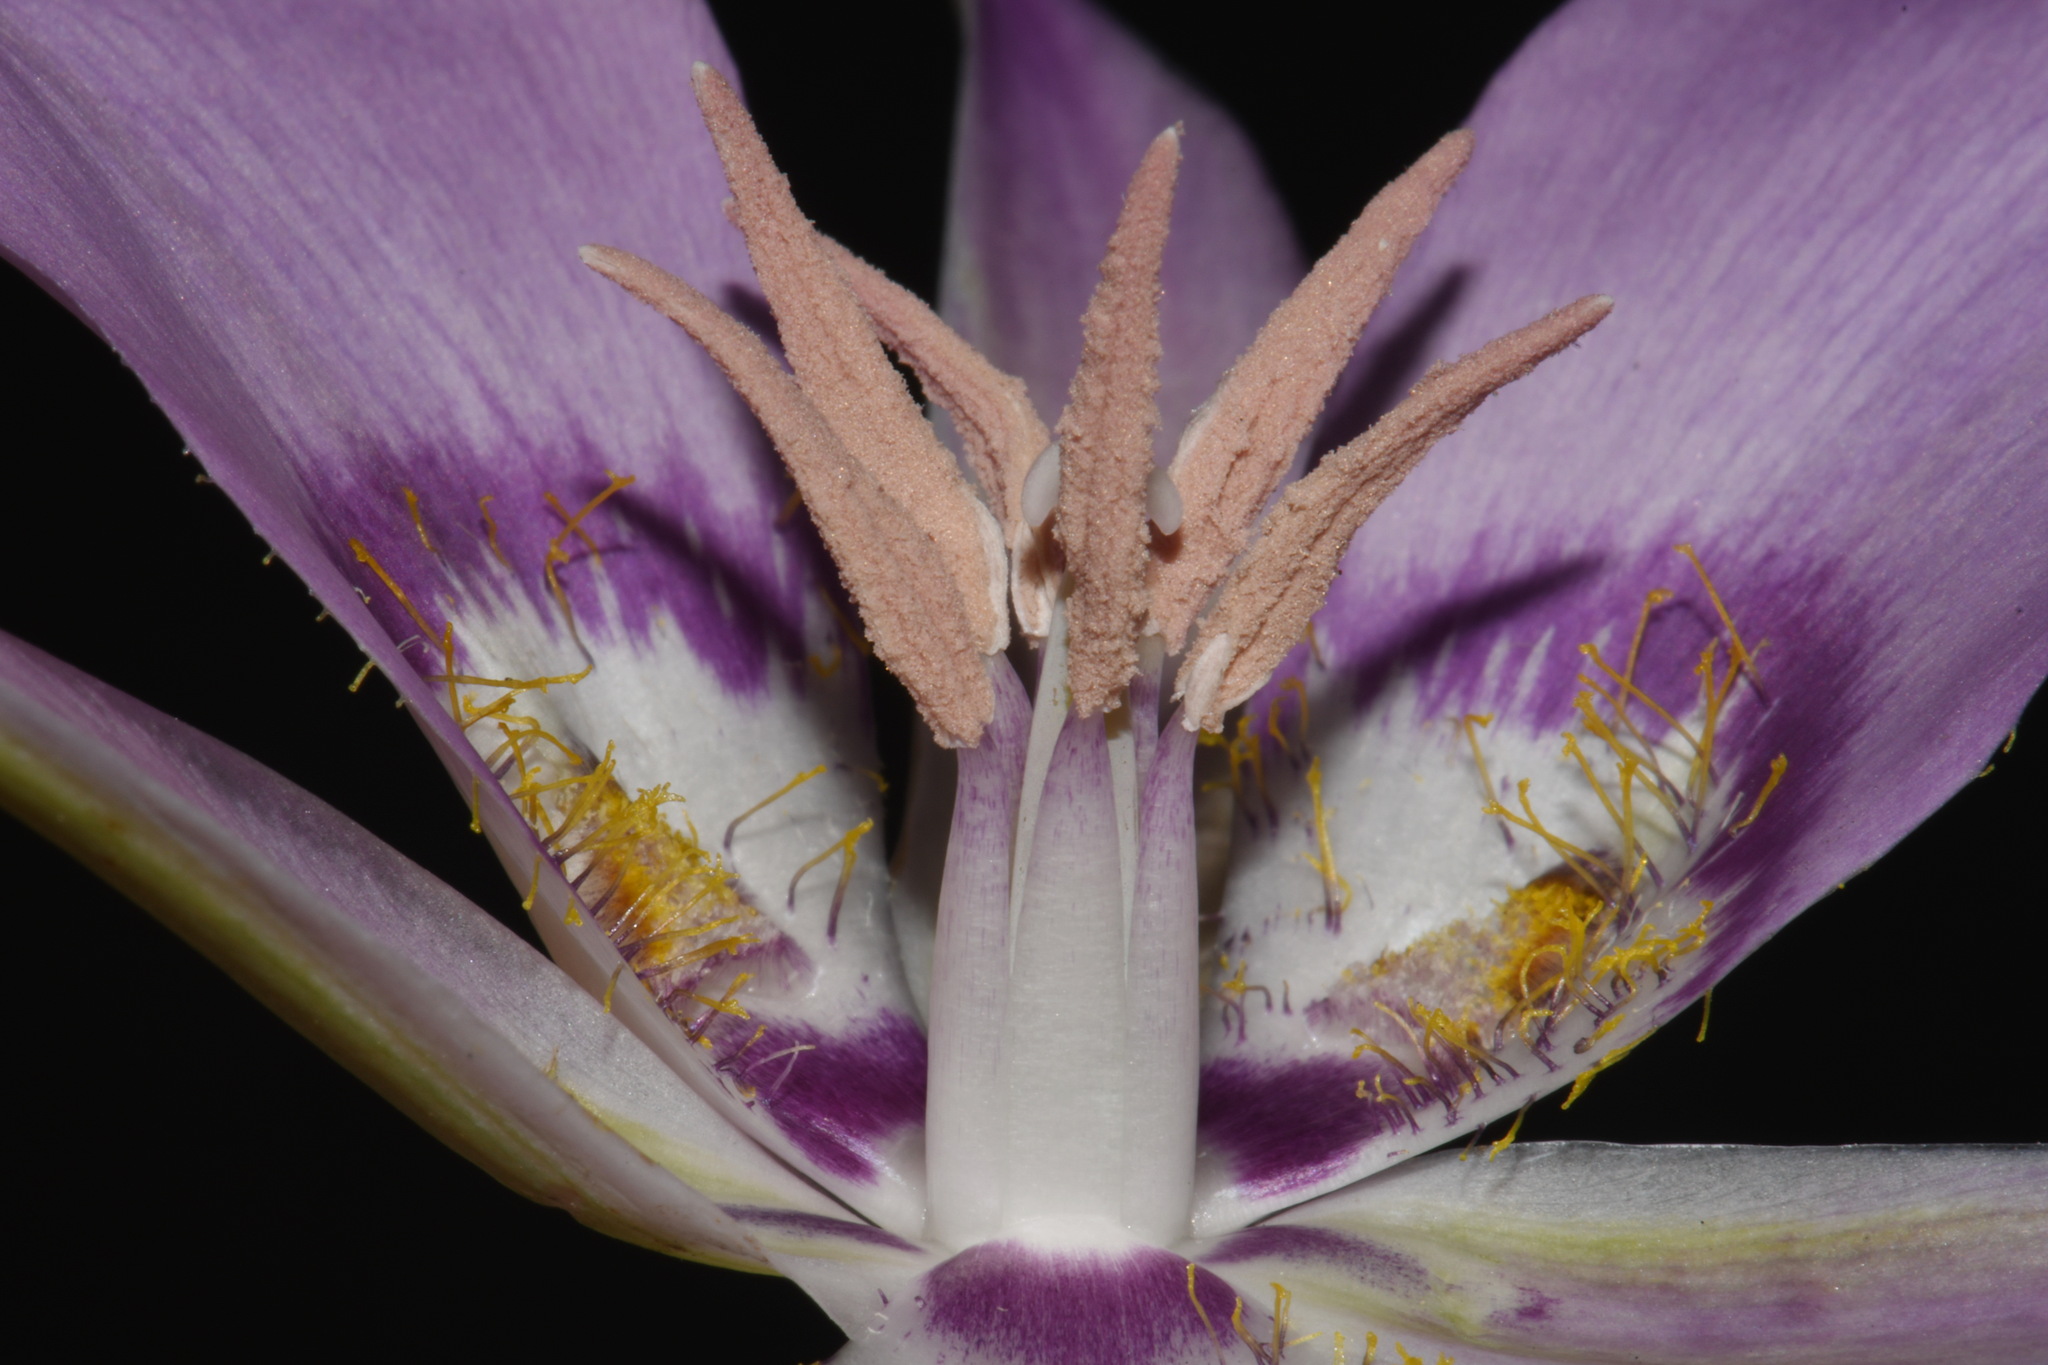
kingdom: Plantae
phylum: Tracheophyta
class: Liliopsida
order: Liliales
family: Liliaceae
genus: Calochortus
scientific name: Calochortus macrocarpus
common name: Green-band mariposa lily
